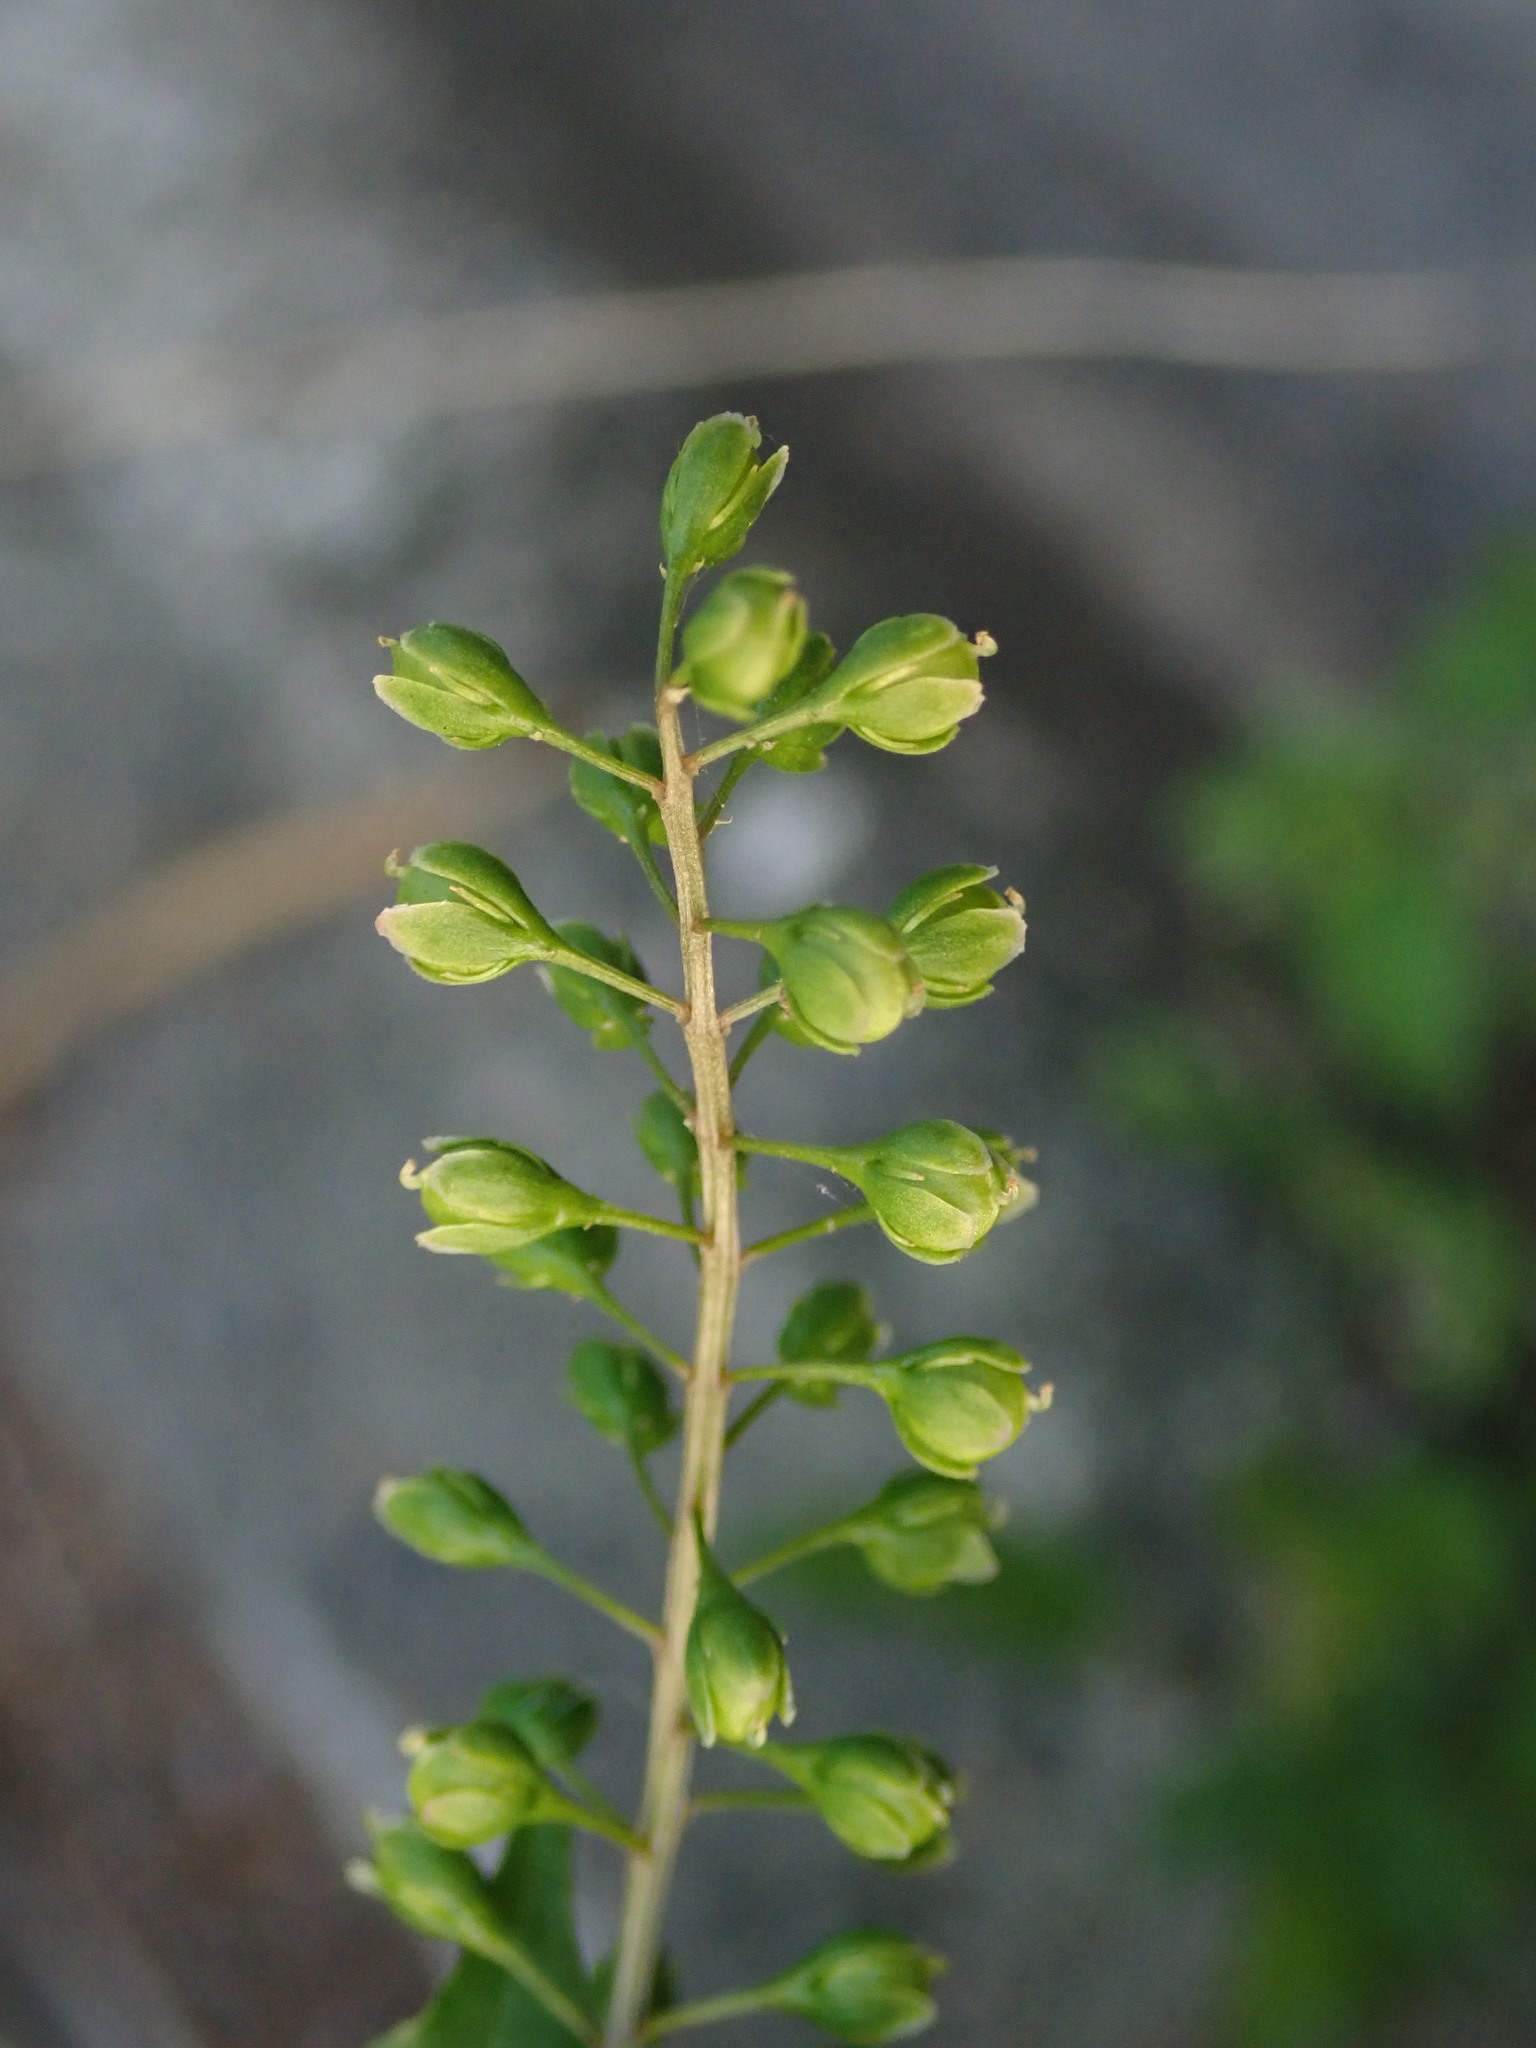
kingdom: Plantae
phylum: Tracheophyta
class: Magnoliopsida
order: Caryophyllales
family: Phytolaccaceae
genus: Rivina
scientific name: Rivina humilis
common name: Rougeplant
